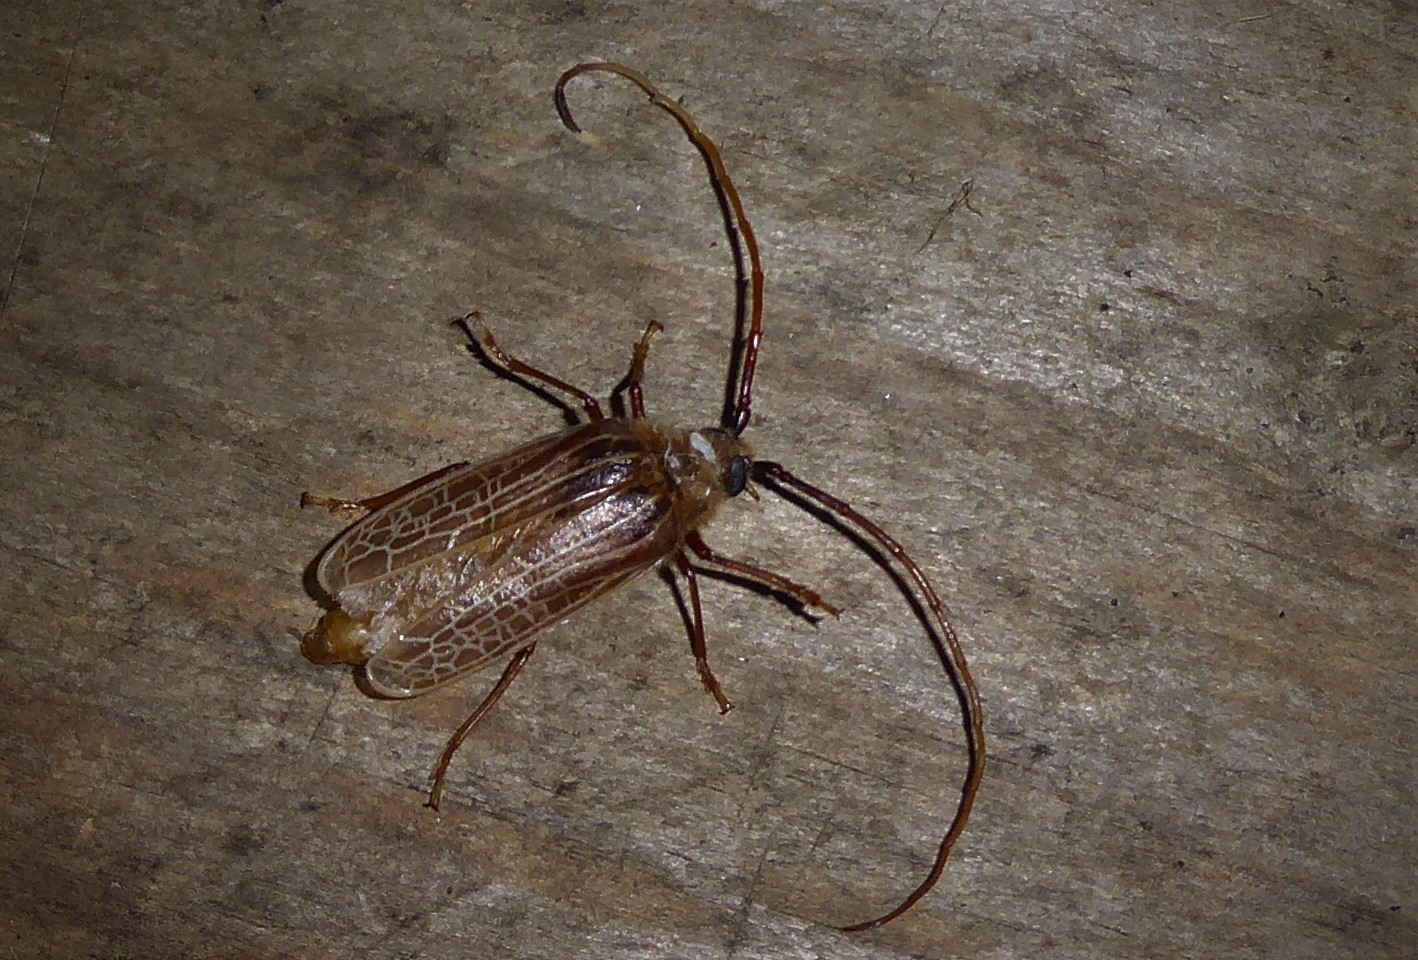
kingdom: Animalia
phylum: Arthropoda
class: Insecta
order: Coleoptera
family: Cerambycidae
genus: Prionoplus
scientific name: Prionoplus reticularis
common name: Huhu beetle
